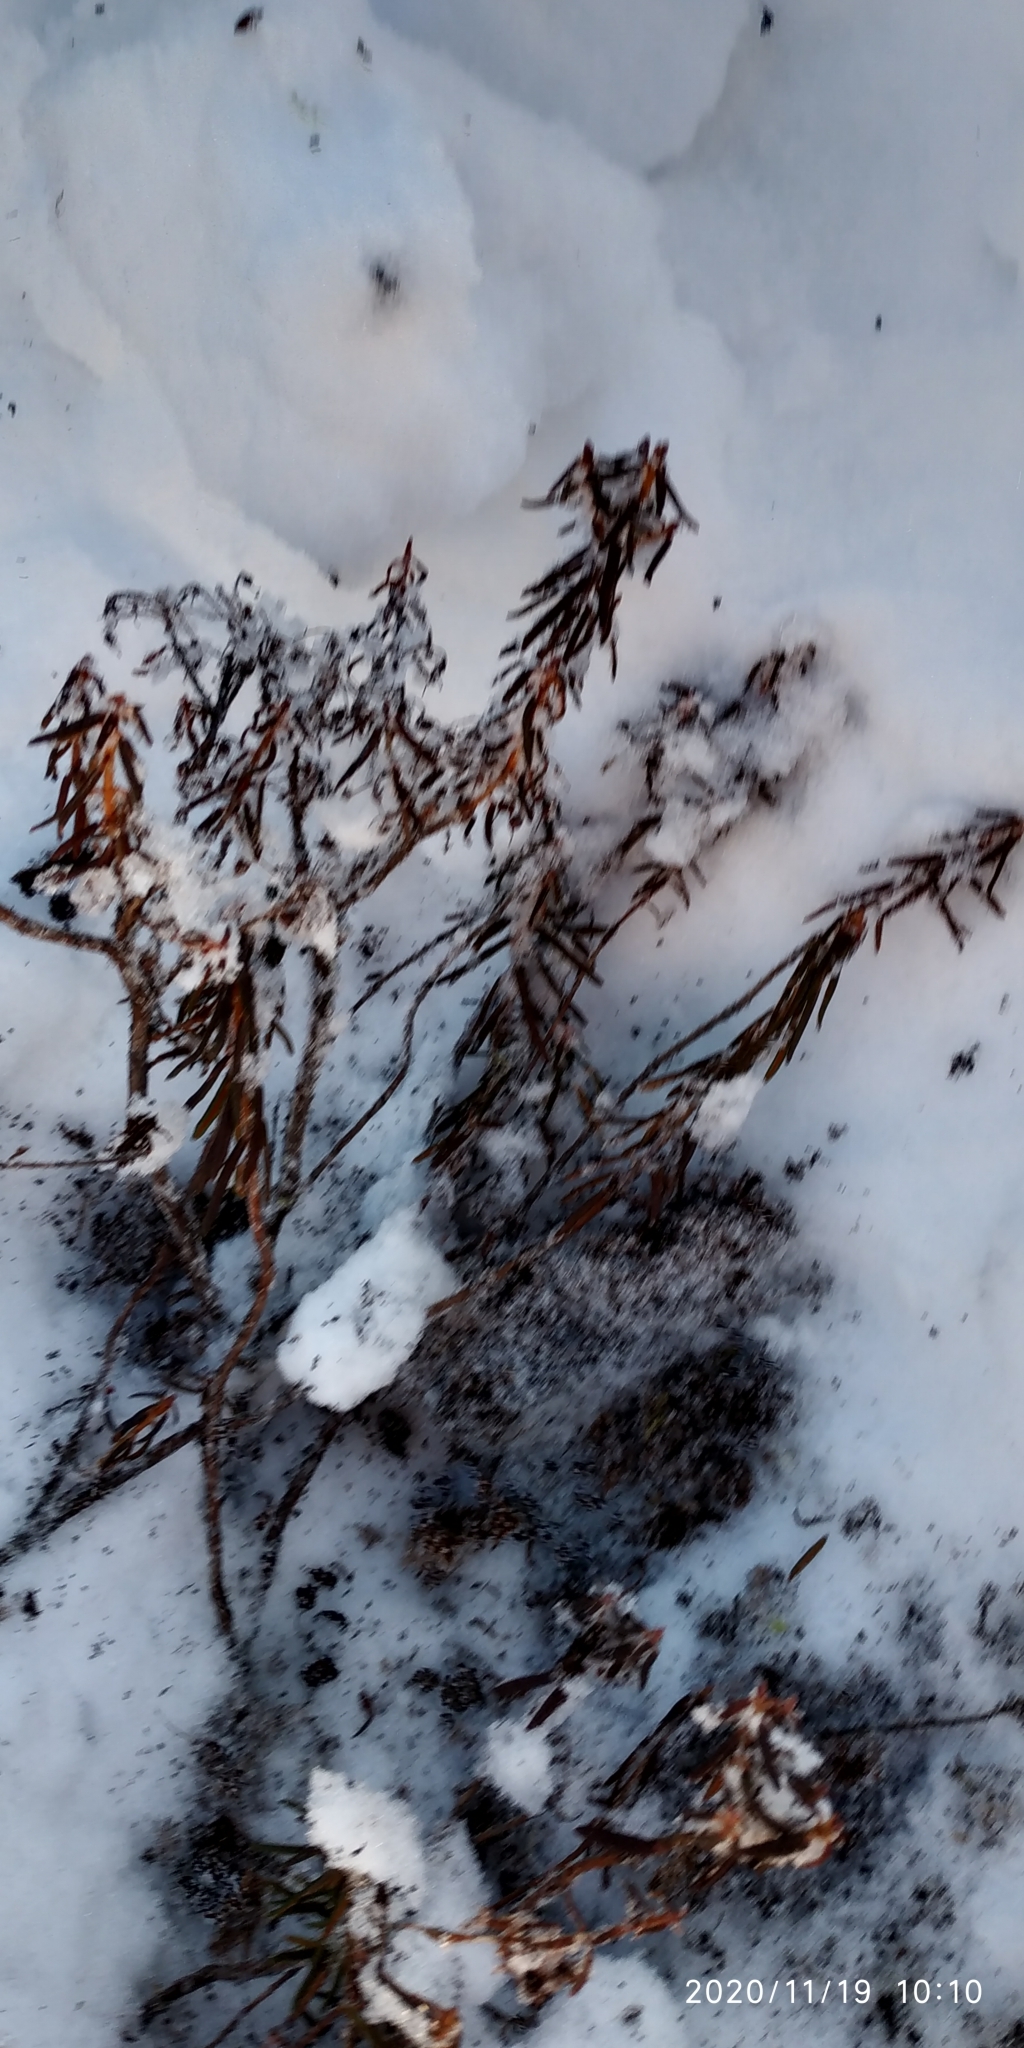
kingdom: Plantae
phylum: Tracheophyta
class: Magnoliopsida
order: Ericales
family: Ericaceae
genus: Rhododendron
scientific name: Rhododendron tomentosum
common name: Marsh labrador tea
